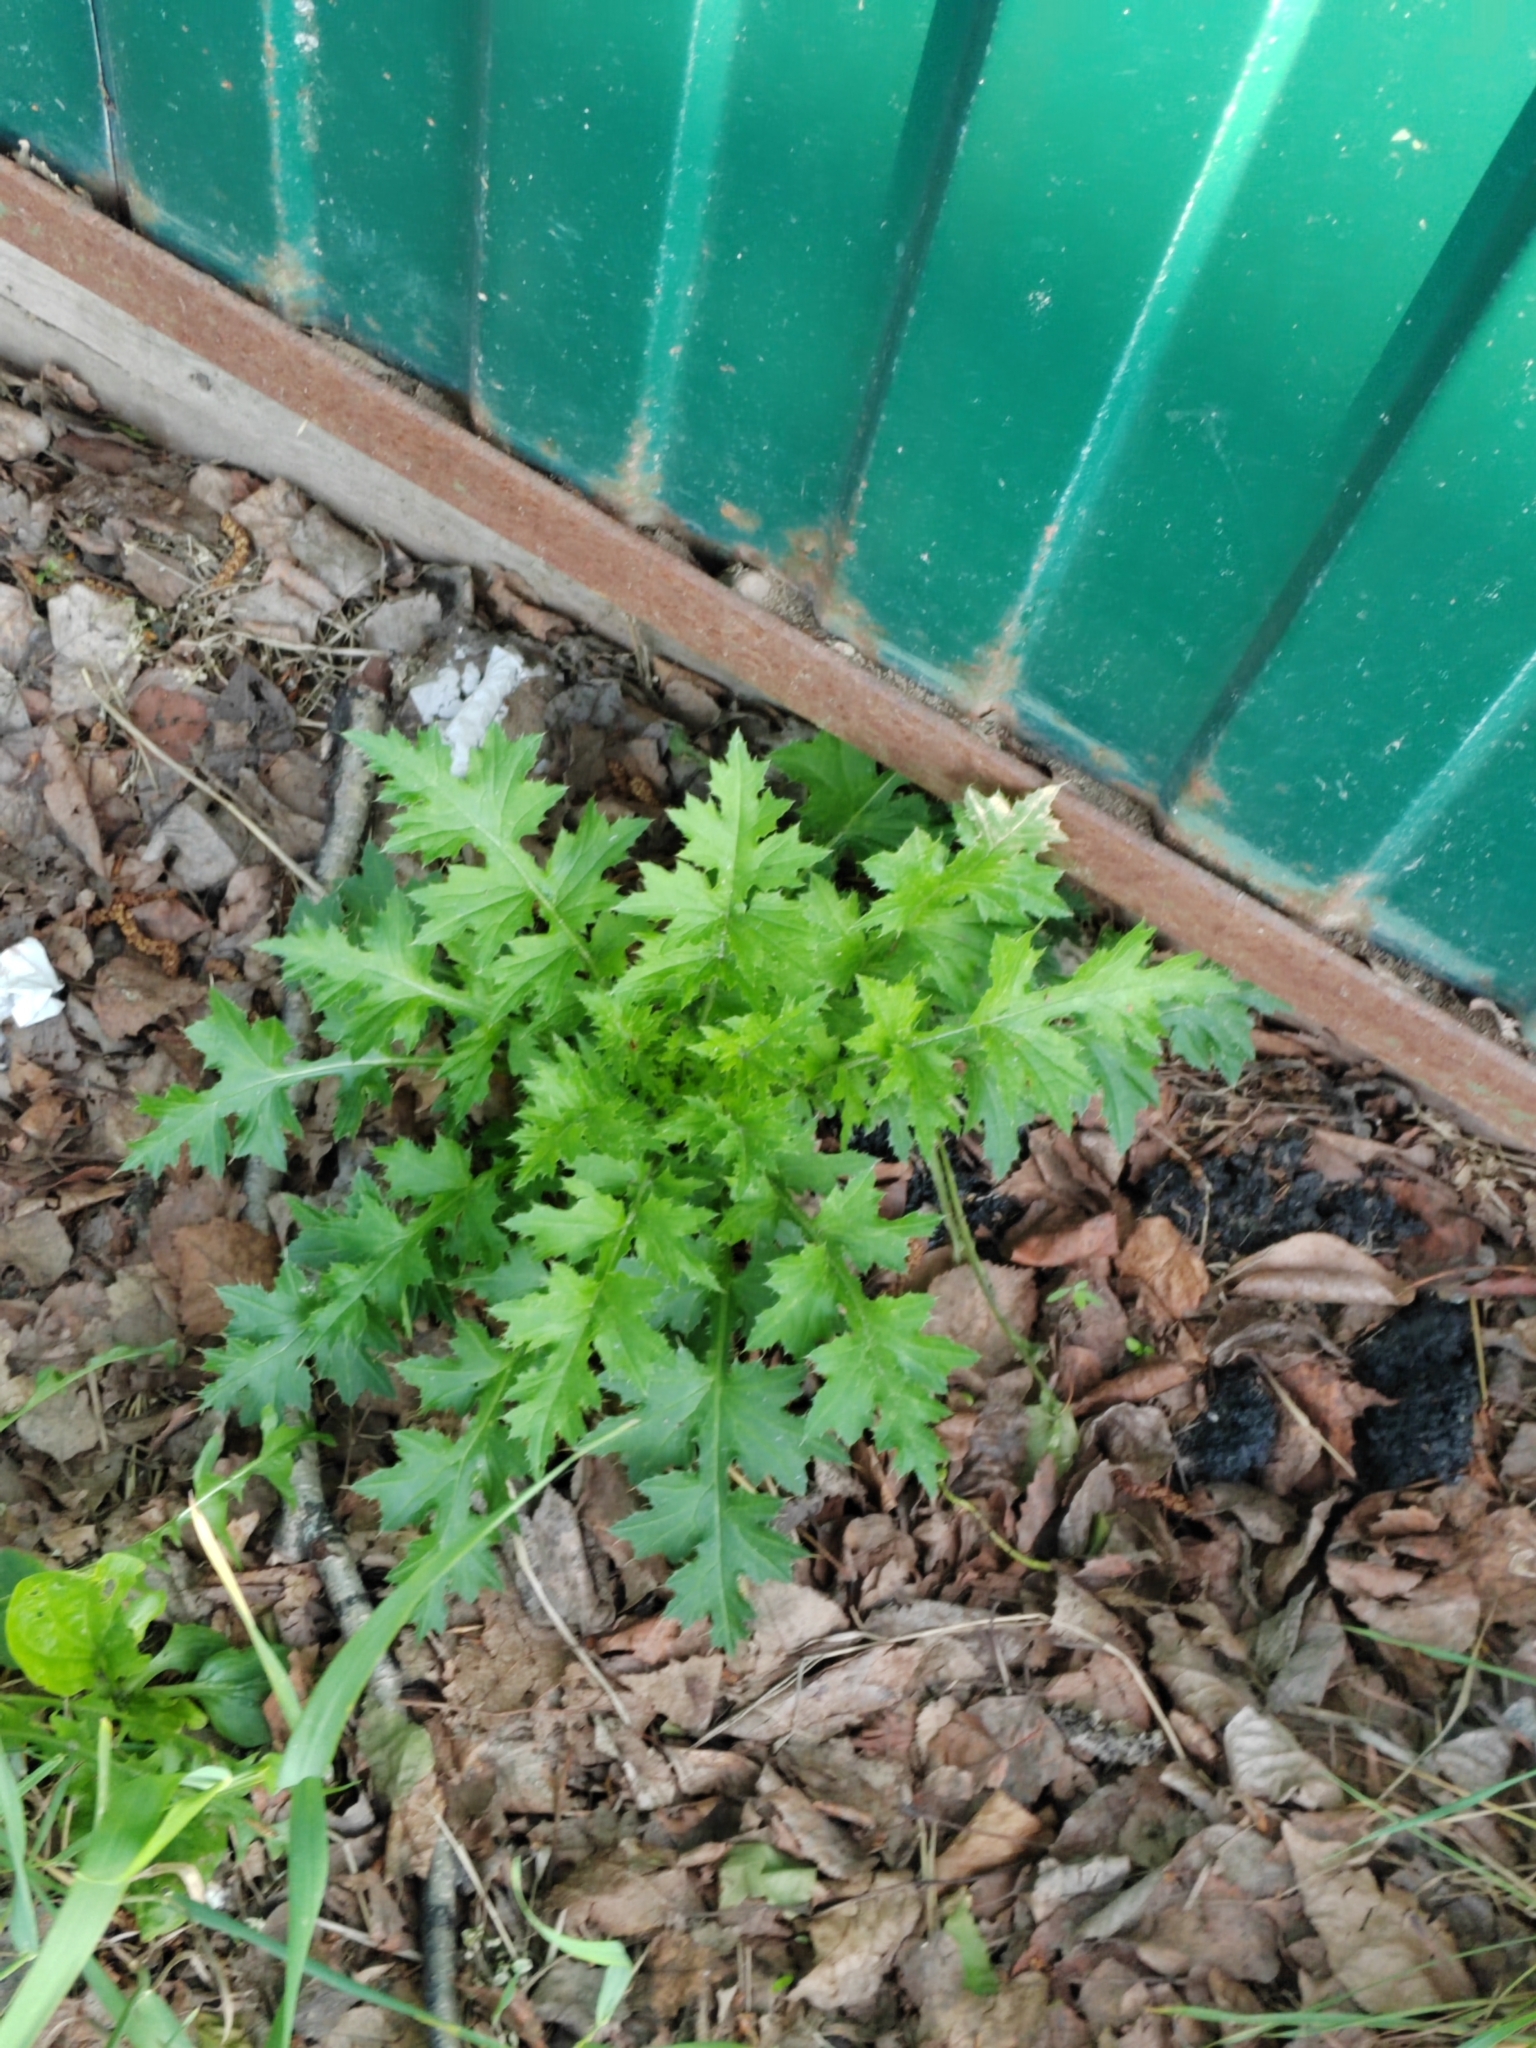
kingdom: Plantae
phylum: Tracheophyta
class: Magnoliopsida
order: Asterales
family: Asteraceae
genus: Carduus
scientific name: Carduus crispus
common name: Welted thistle
